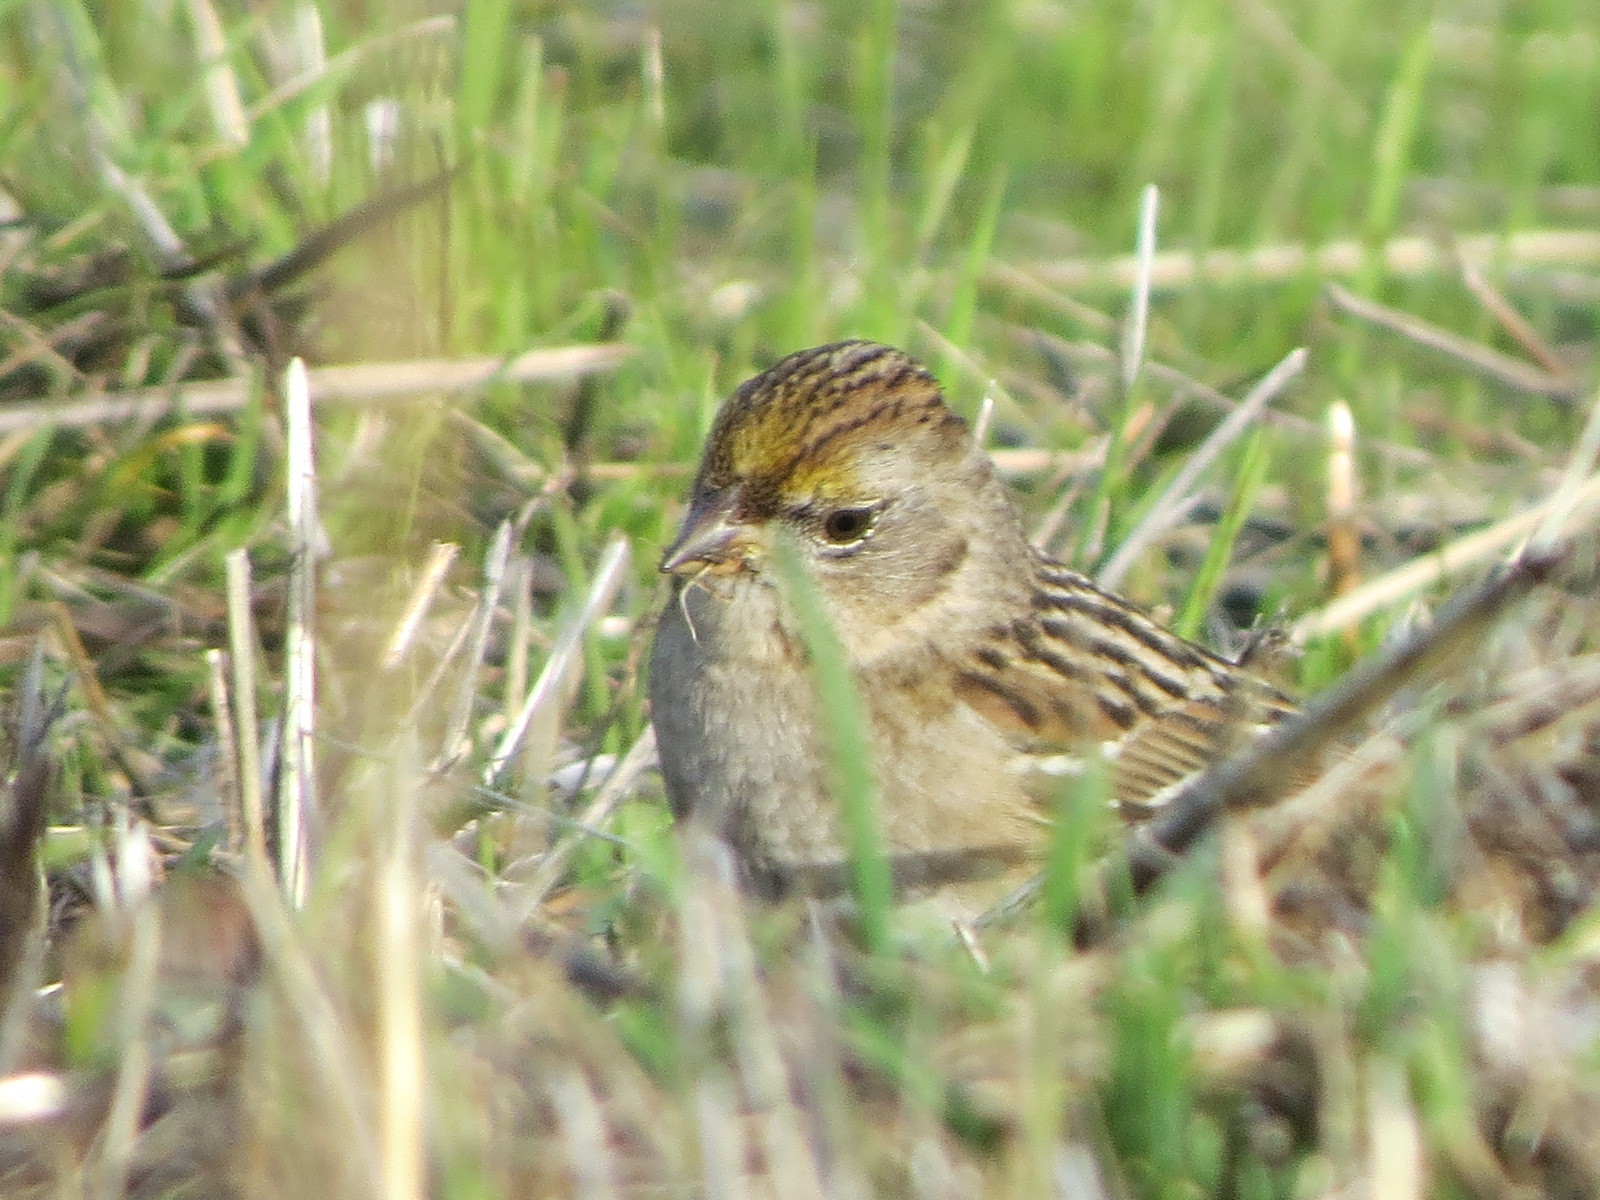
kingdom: Animalia
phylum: Chordata
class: Aves
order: Passeriformes
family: Passerellidae
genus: Zonotrichia
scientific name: Zonotrichia atricapilla
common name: Golden-crowned sparrow
